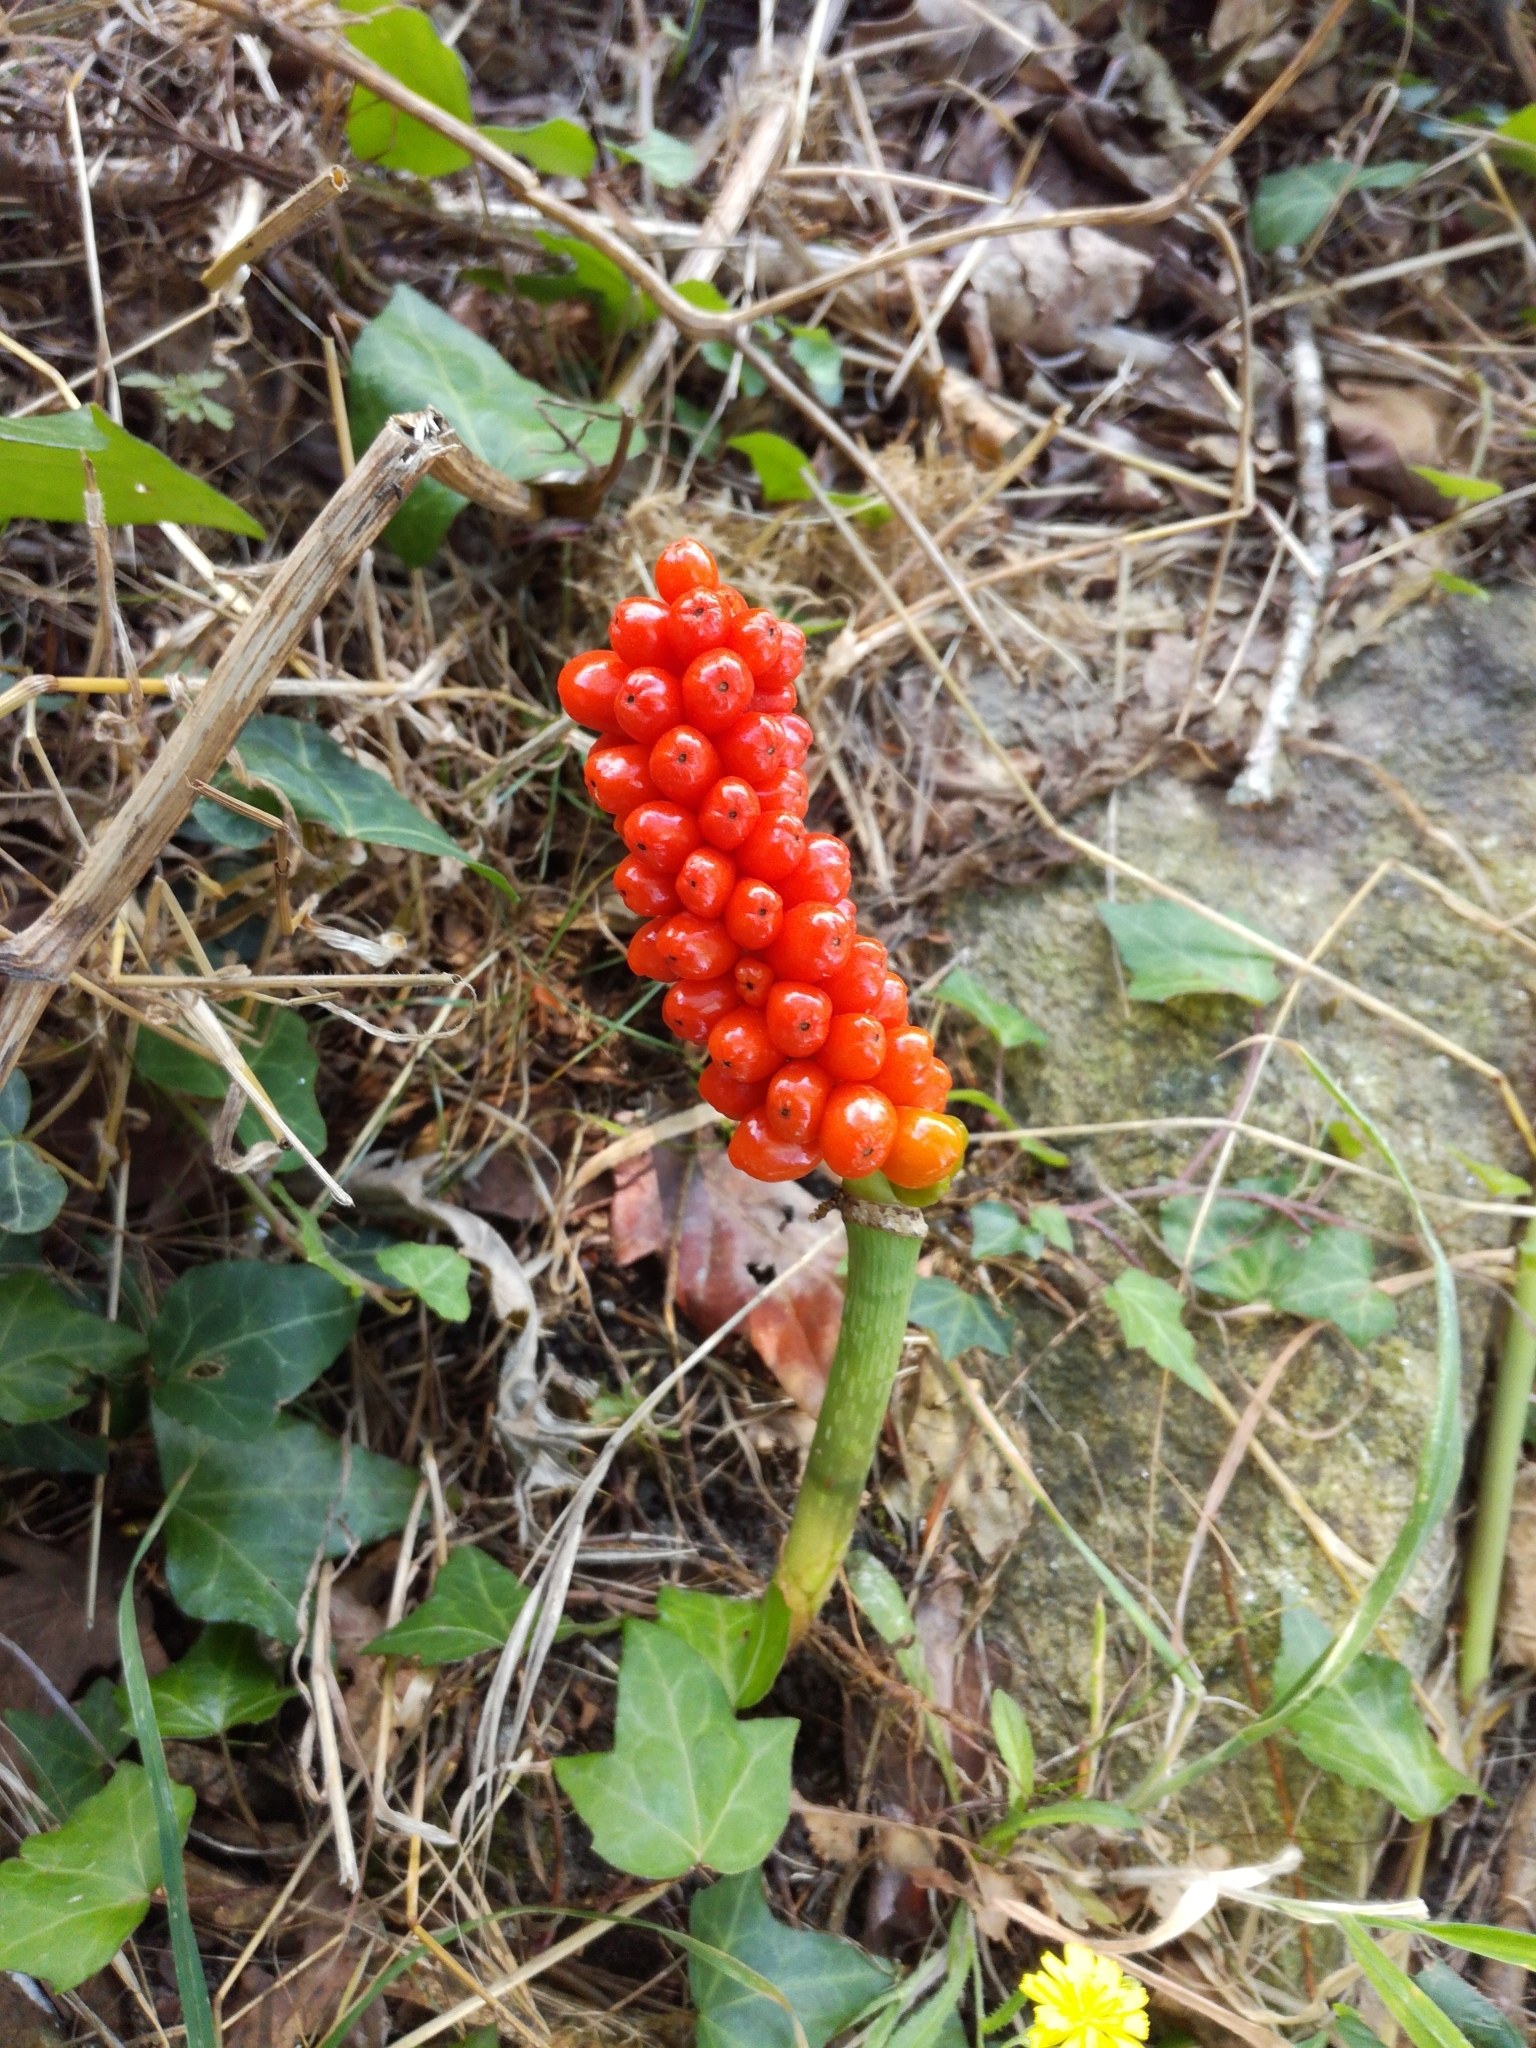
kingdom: Plantae
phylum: Tracheophyta
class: Liliopsida
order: Alismatales
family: Araceae
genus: Arum
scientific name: Arum italicum
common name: Italian lords-and-ladies
